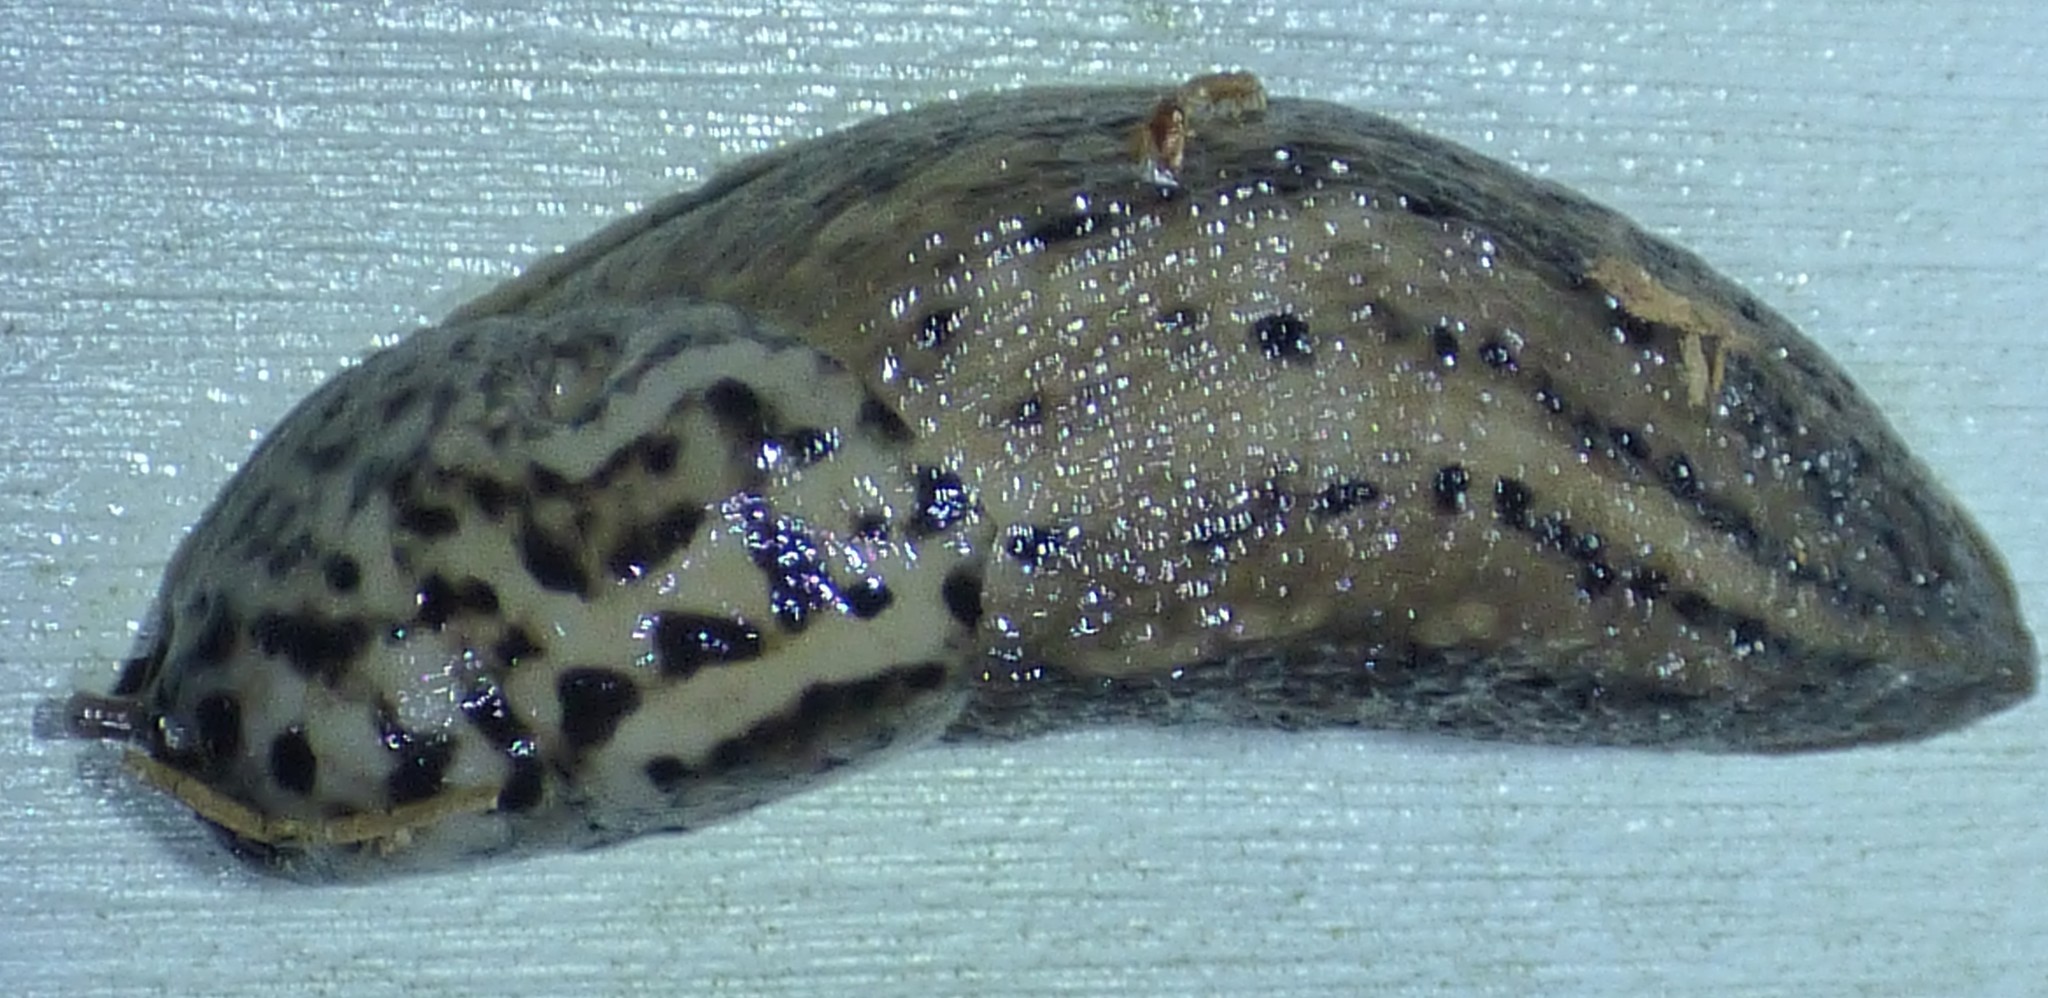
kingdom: Animalia
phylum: Mollusca
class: Gastropoda
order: Stylommatophora
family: Limacidae
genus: Limax
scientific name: Limax maximus
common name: Great grey slug
